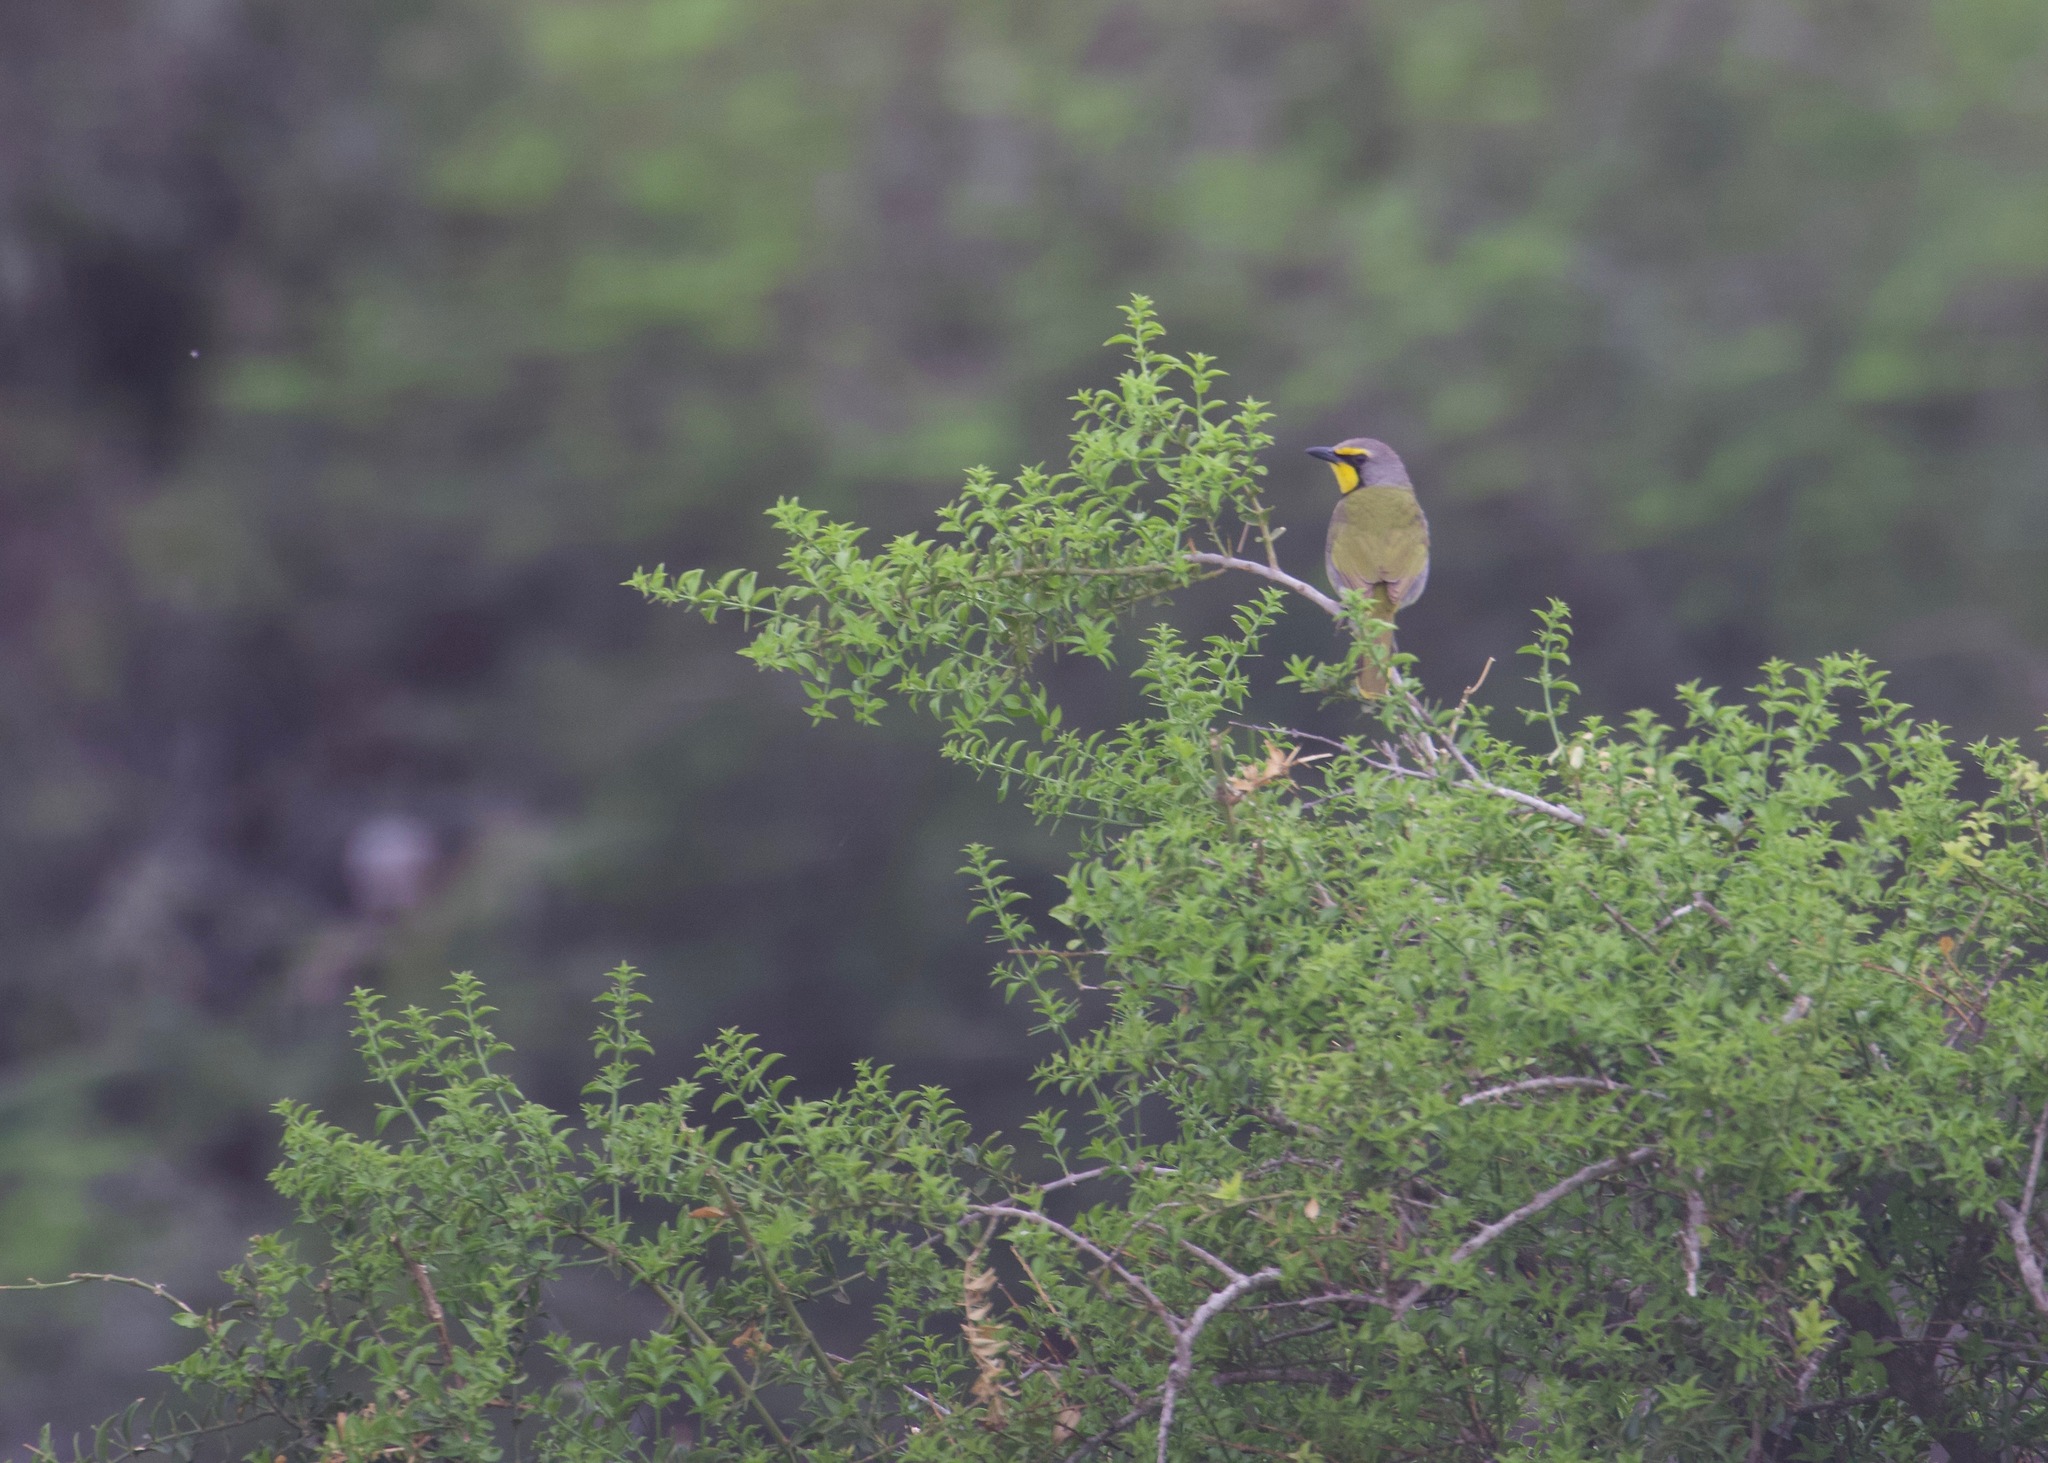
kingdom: Animalia
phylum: Chordata
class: Aves
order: Passeriformes
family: Malaconotidae
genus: Telophorus
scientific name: Telophorus zeylonus
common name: Bokmakierie
